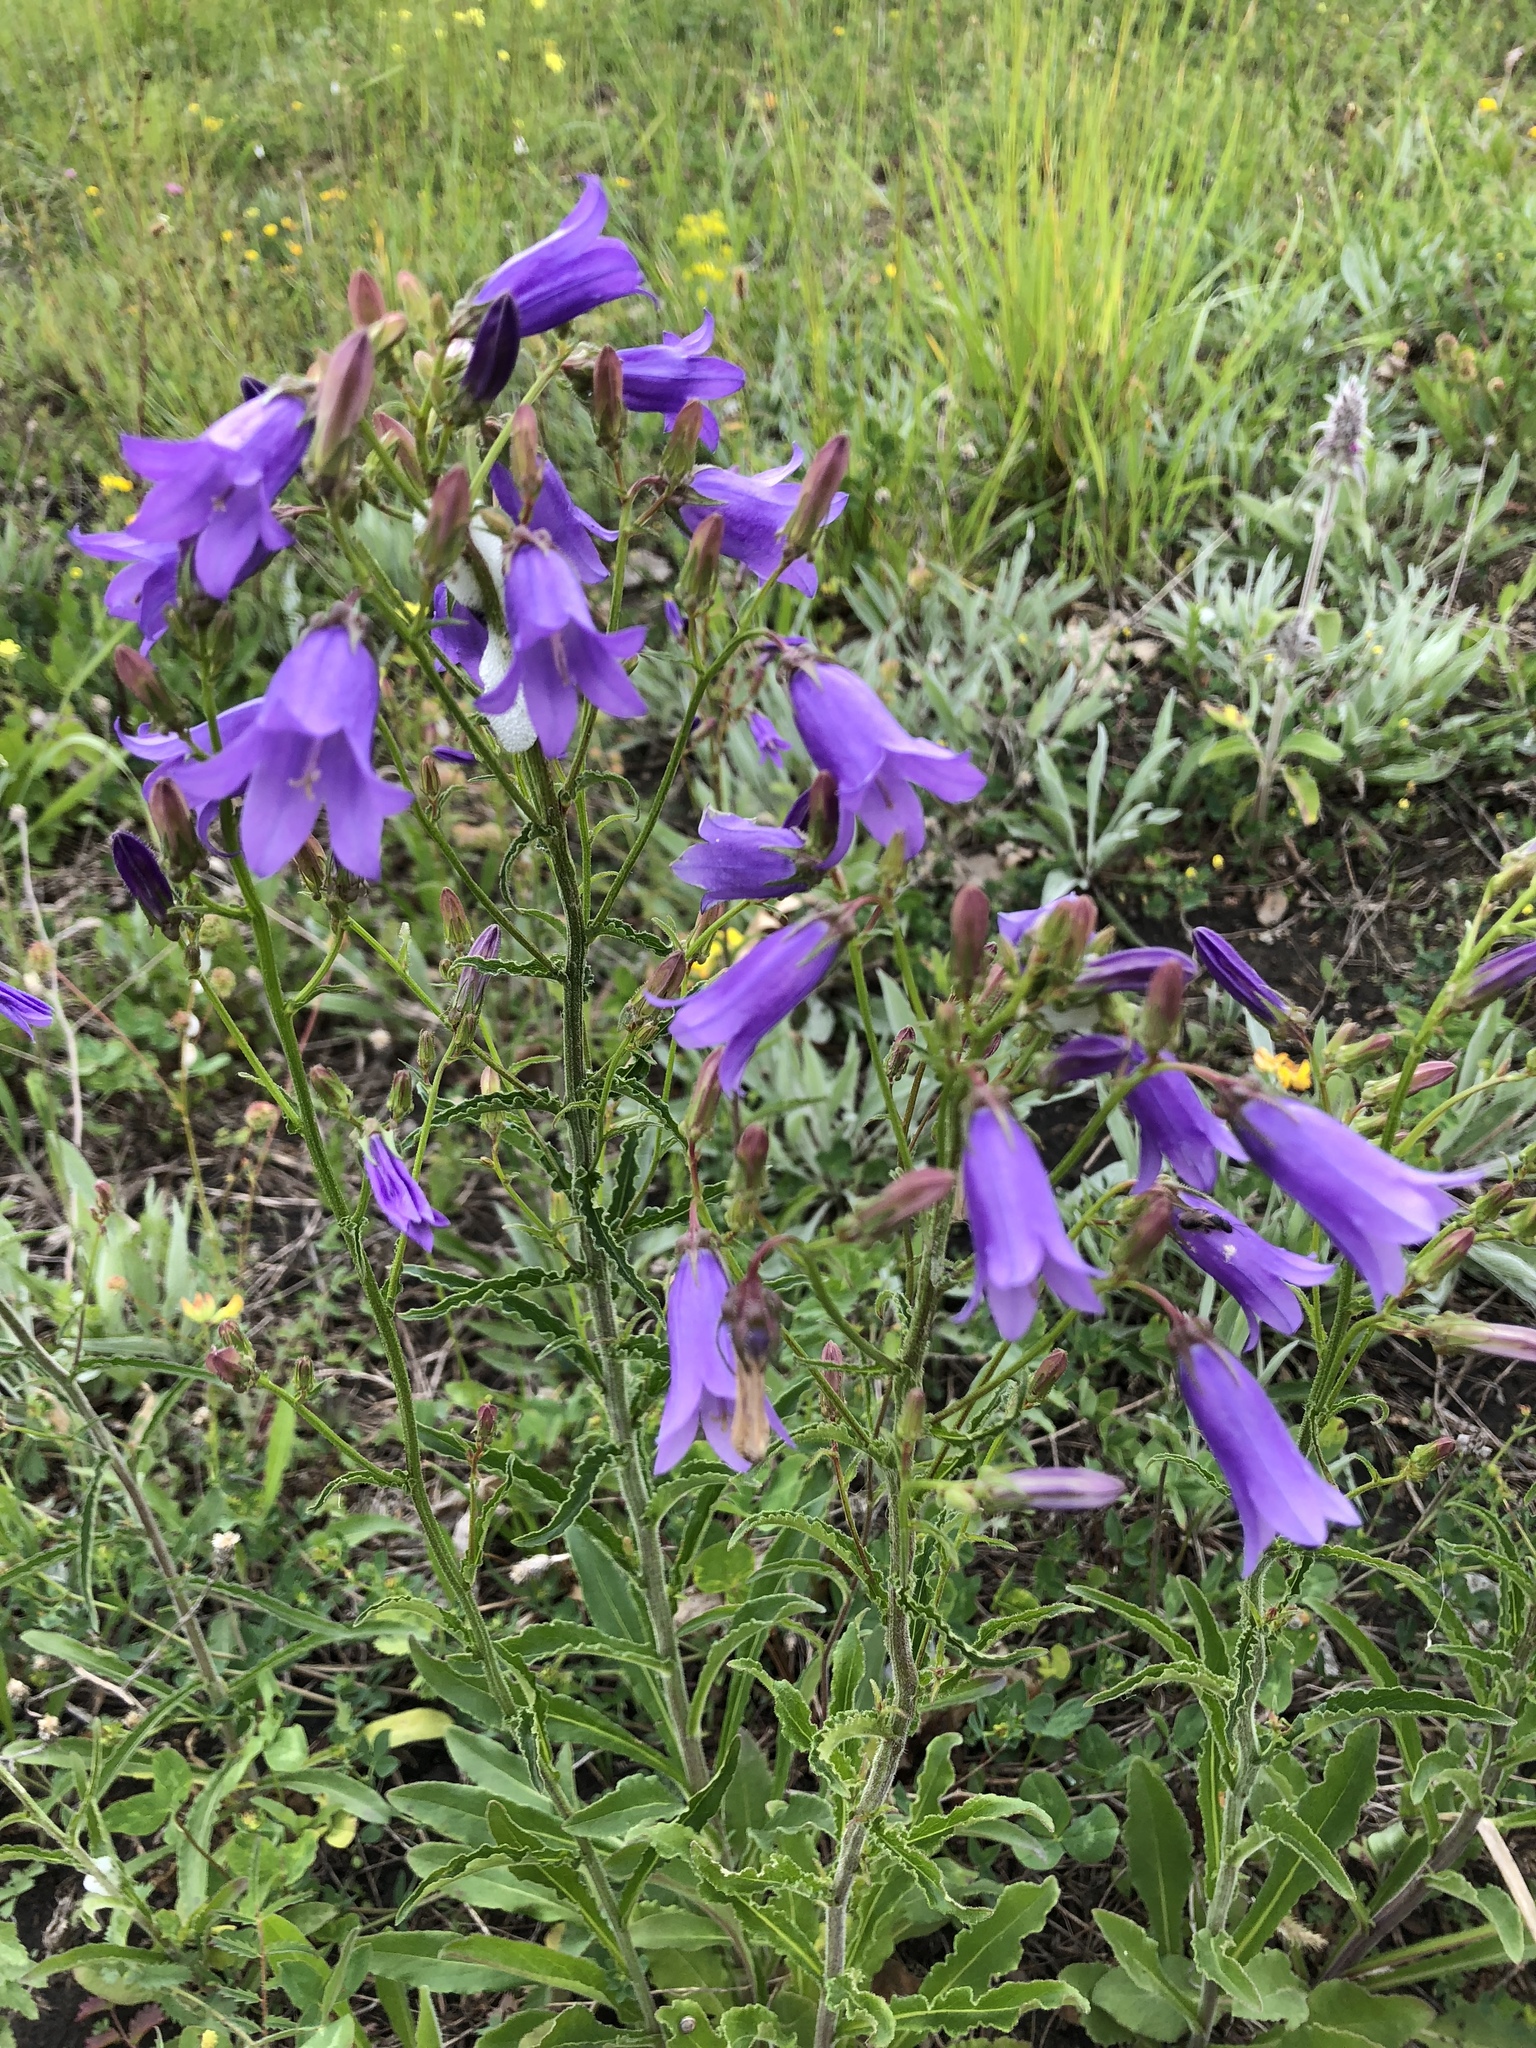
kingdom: Plantae
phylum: Tracheophyta
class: Magnoliopsida
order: Asterales
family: Campanulaceae
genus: Campanula
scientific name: Campanula sibirica
